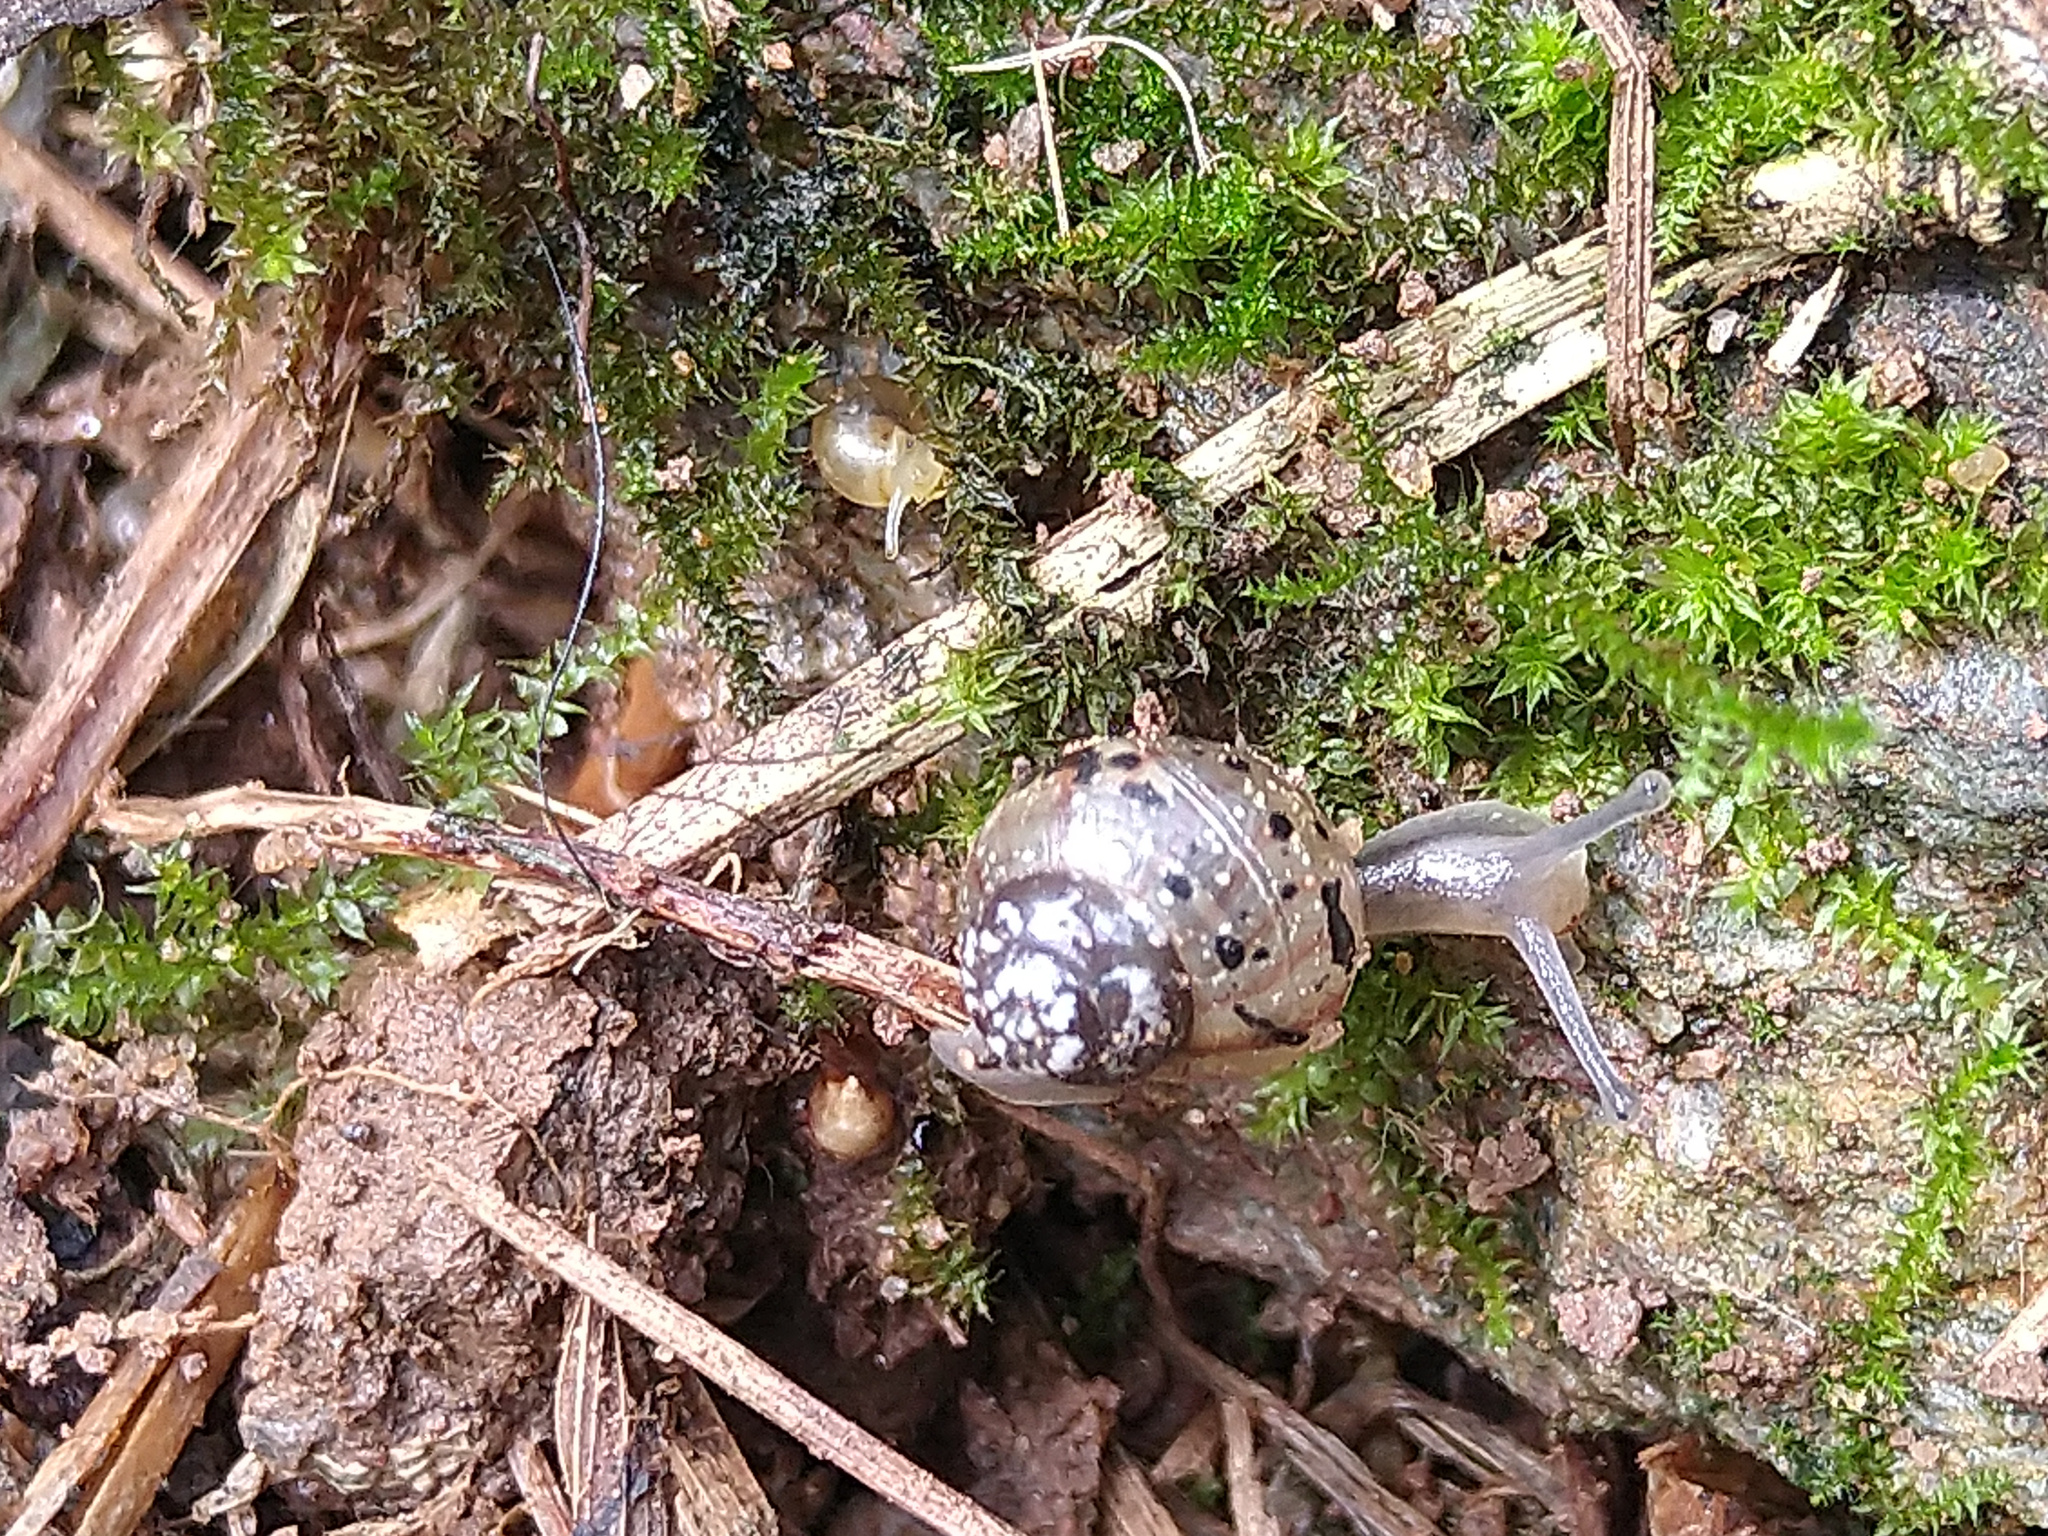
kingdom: Animalia
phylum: Mollusca
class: Gastropoda
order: Stylommatophora
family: Achatinidae
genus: Lissachatina
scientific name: Lissachatina fulica
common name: Giant african snail
